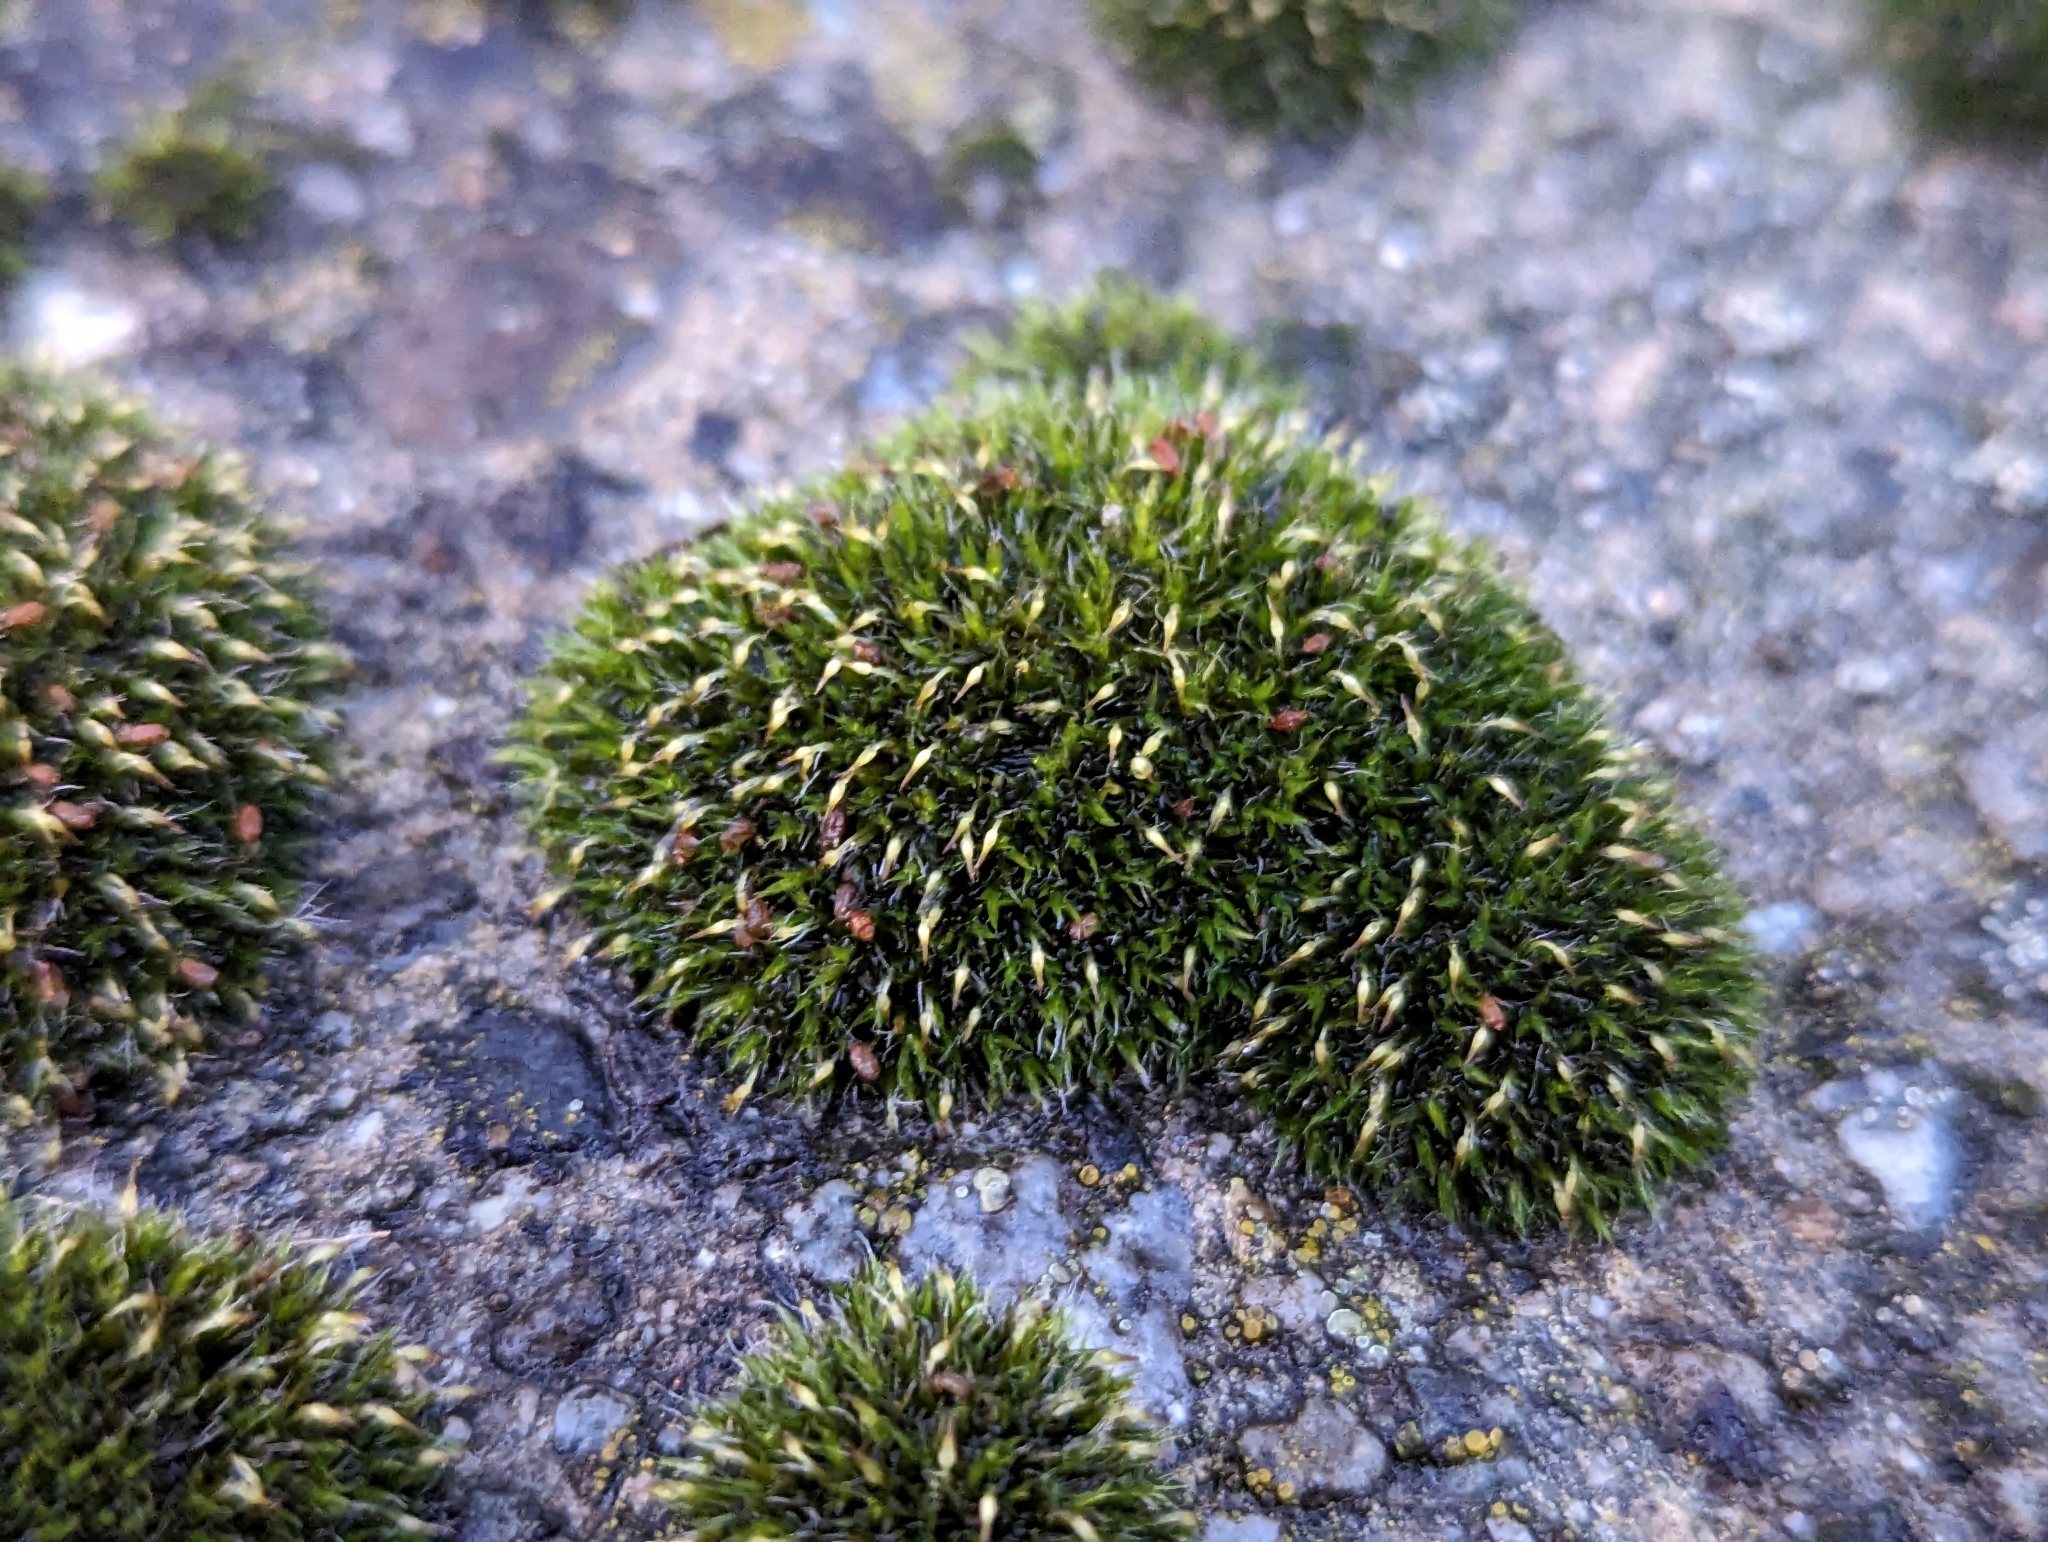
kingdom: Plantae
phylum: Bryophyta
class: Bryopsida
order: Grimmiales
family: Grimmiaceae
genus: Grimmia
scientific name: Grimmia pulvinata
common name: Grey-cushioned grimmia
